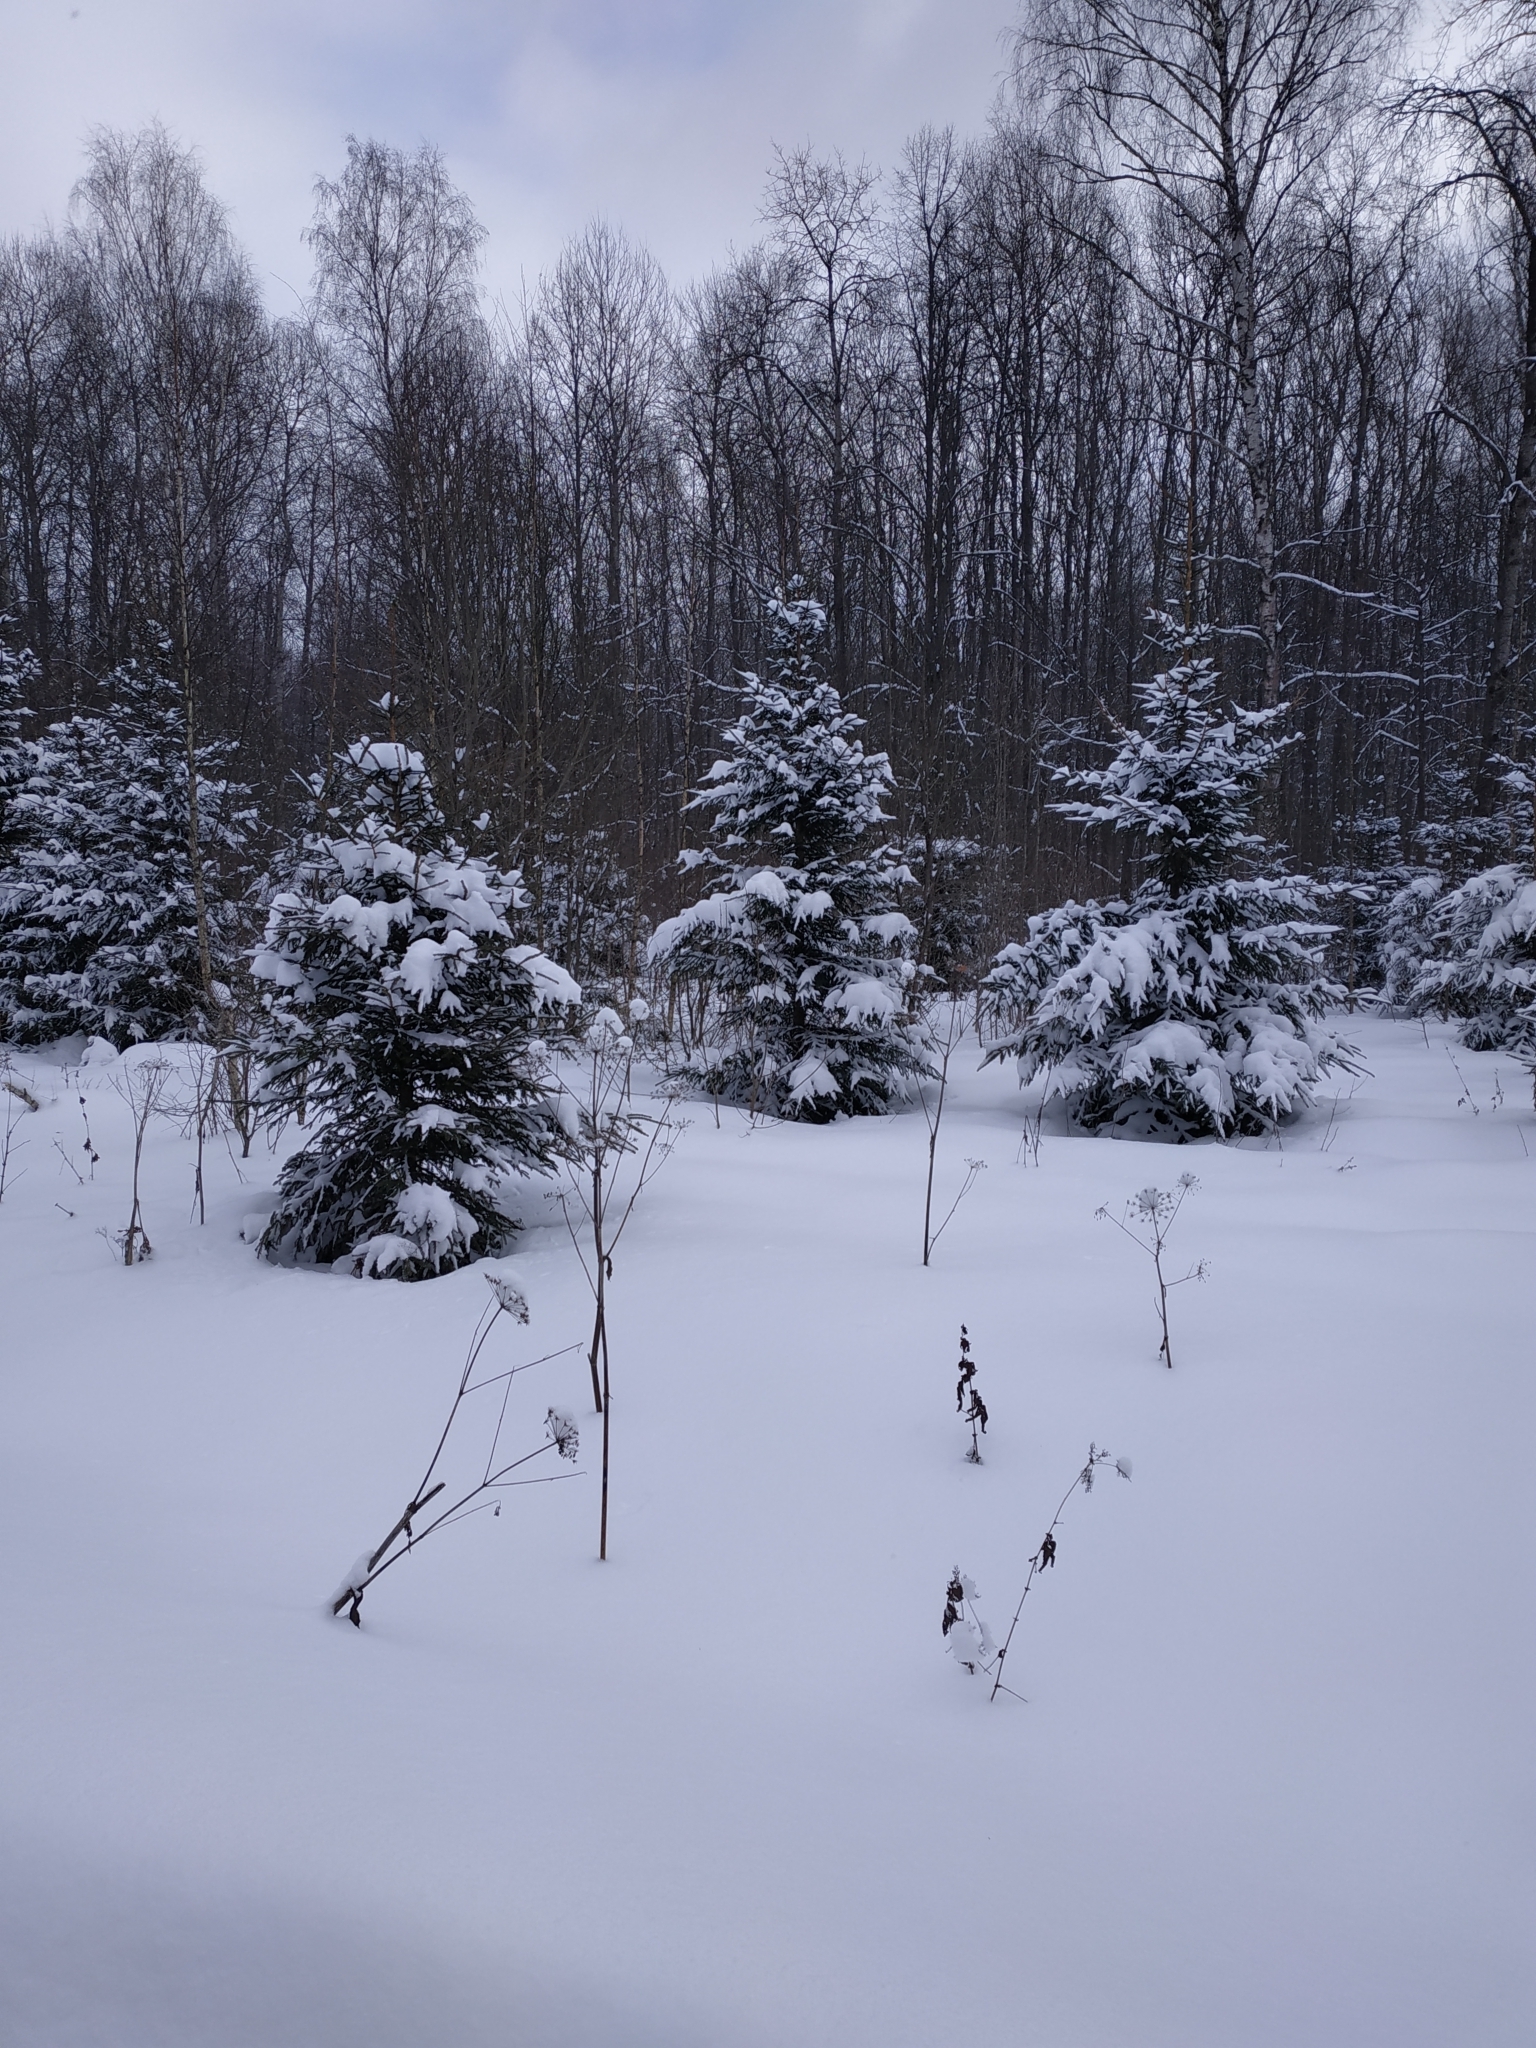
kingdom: Plantae
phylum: Tracheophyta
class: Pinopsida
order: Pinales
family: Pinaceae
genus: Picea
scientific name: Picea abies
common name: Norway spruce
